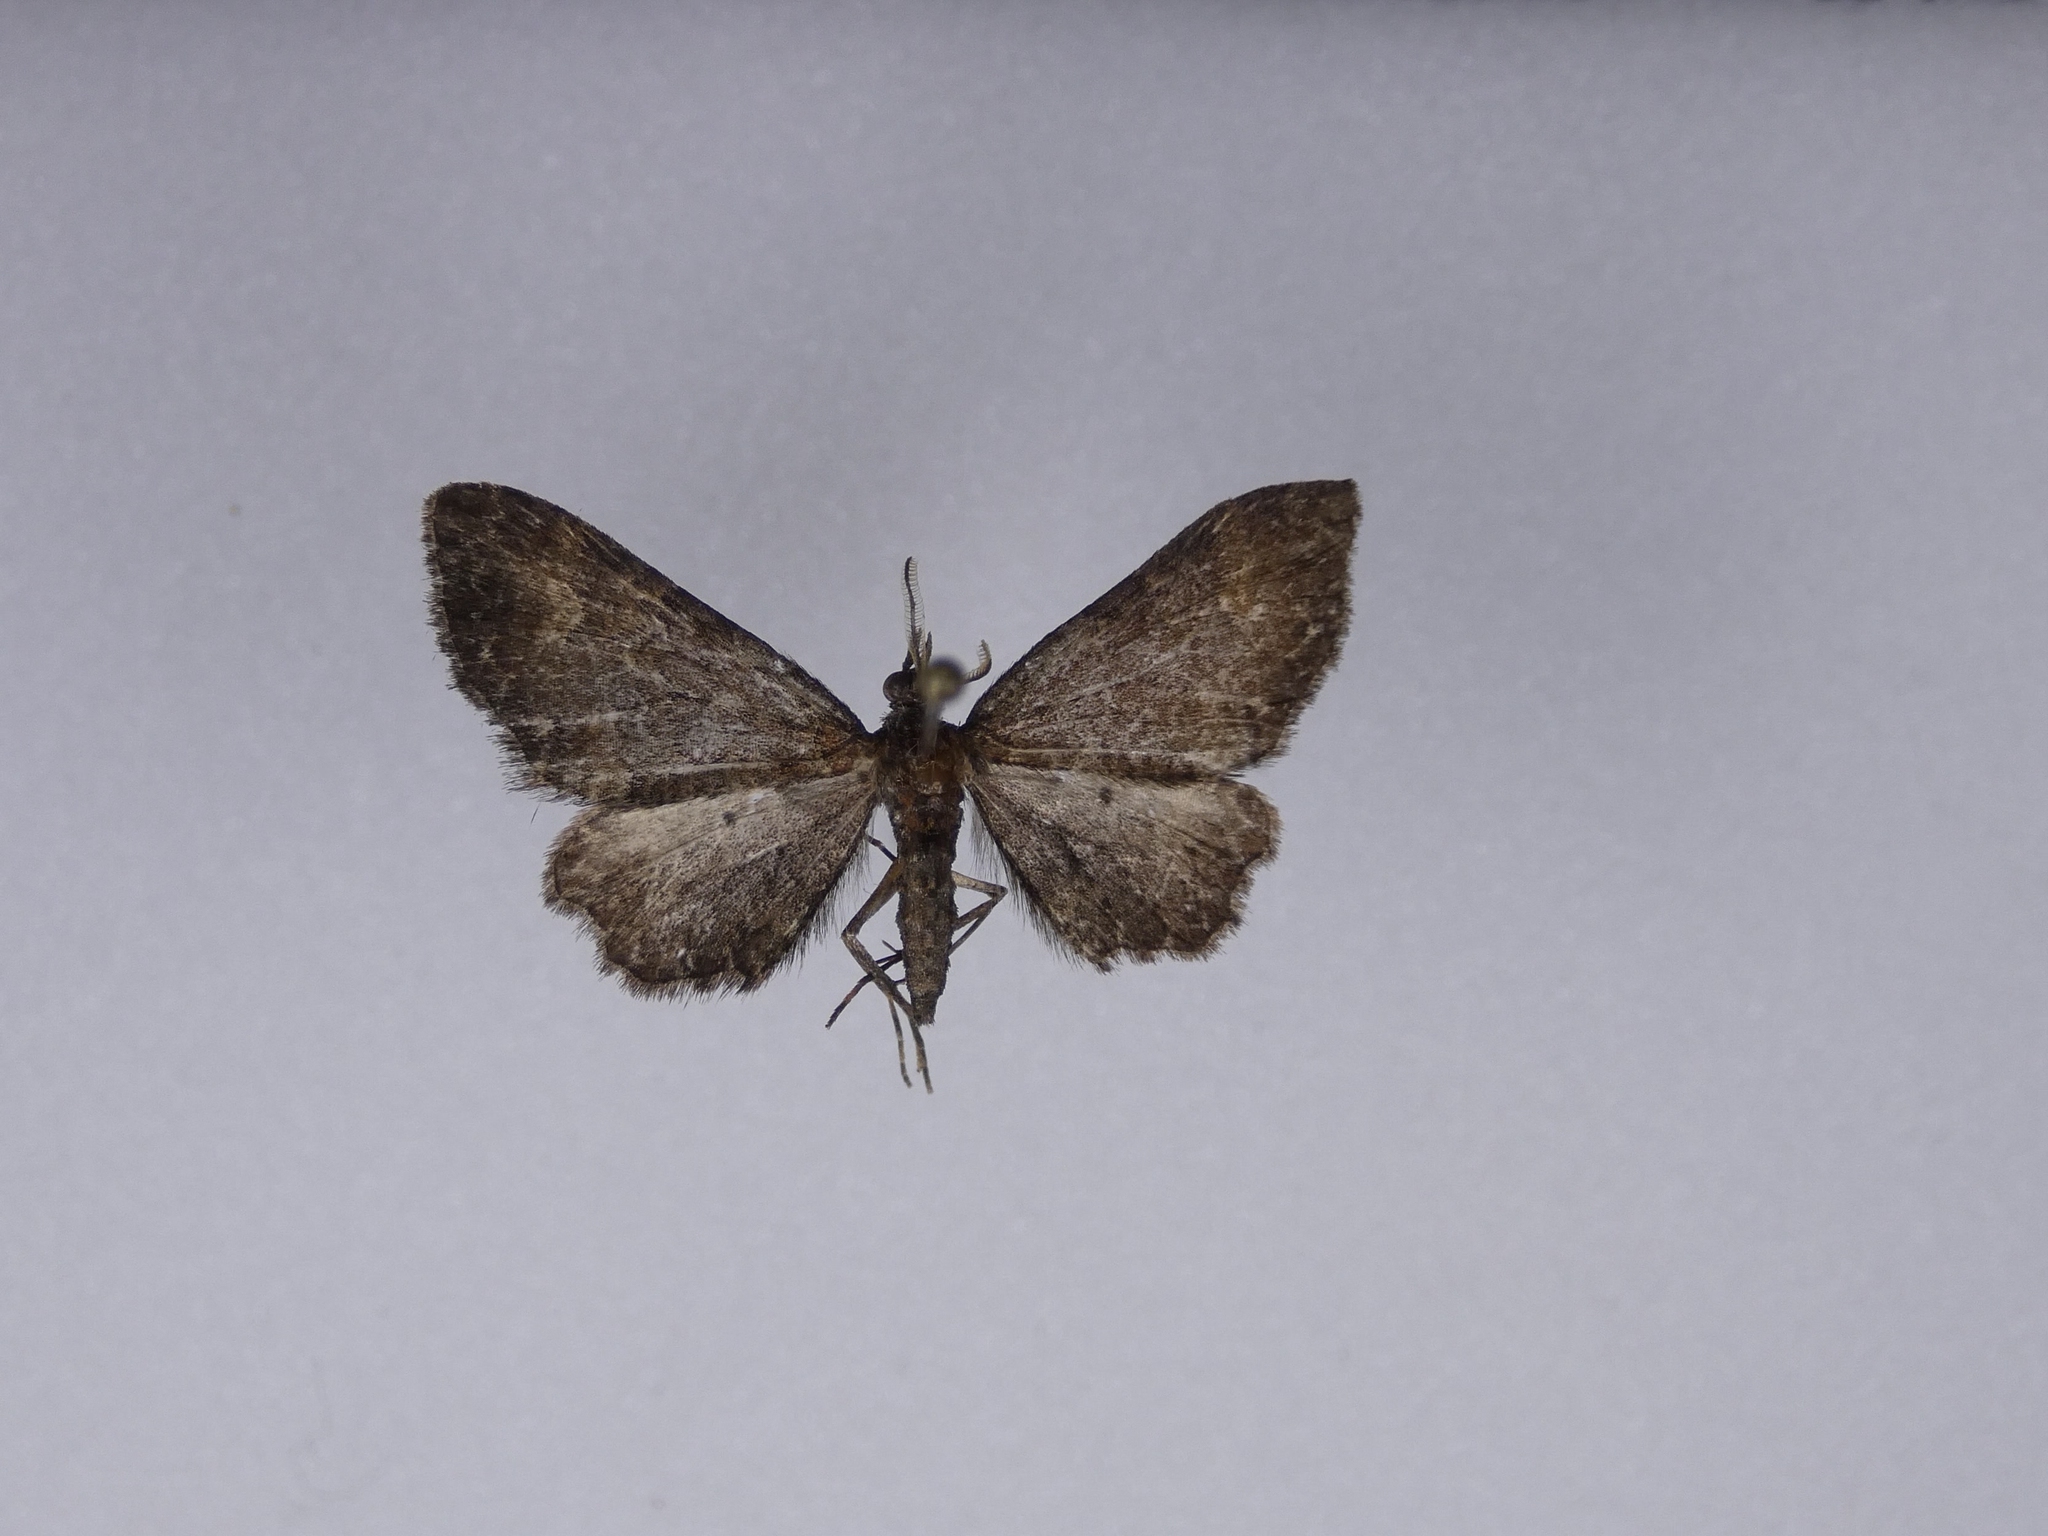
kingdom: Animalia
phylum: Arthropoda
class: Insecta
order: Lepidoptera
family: Geometridae
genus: Pasiphila
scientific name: Pasiphila dryas
